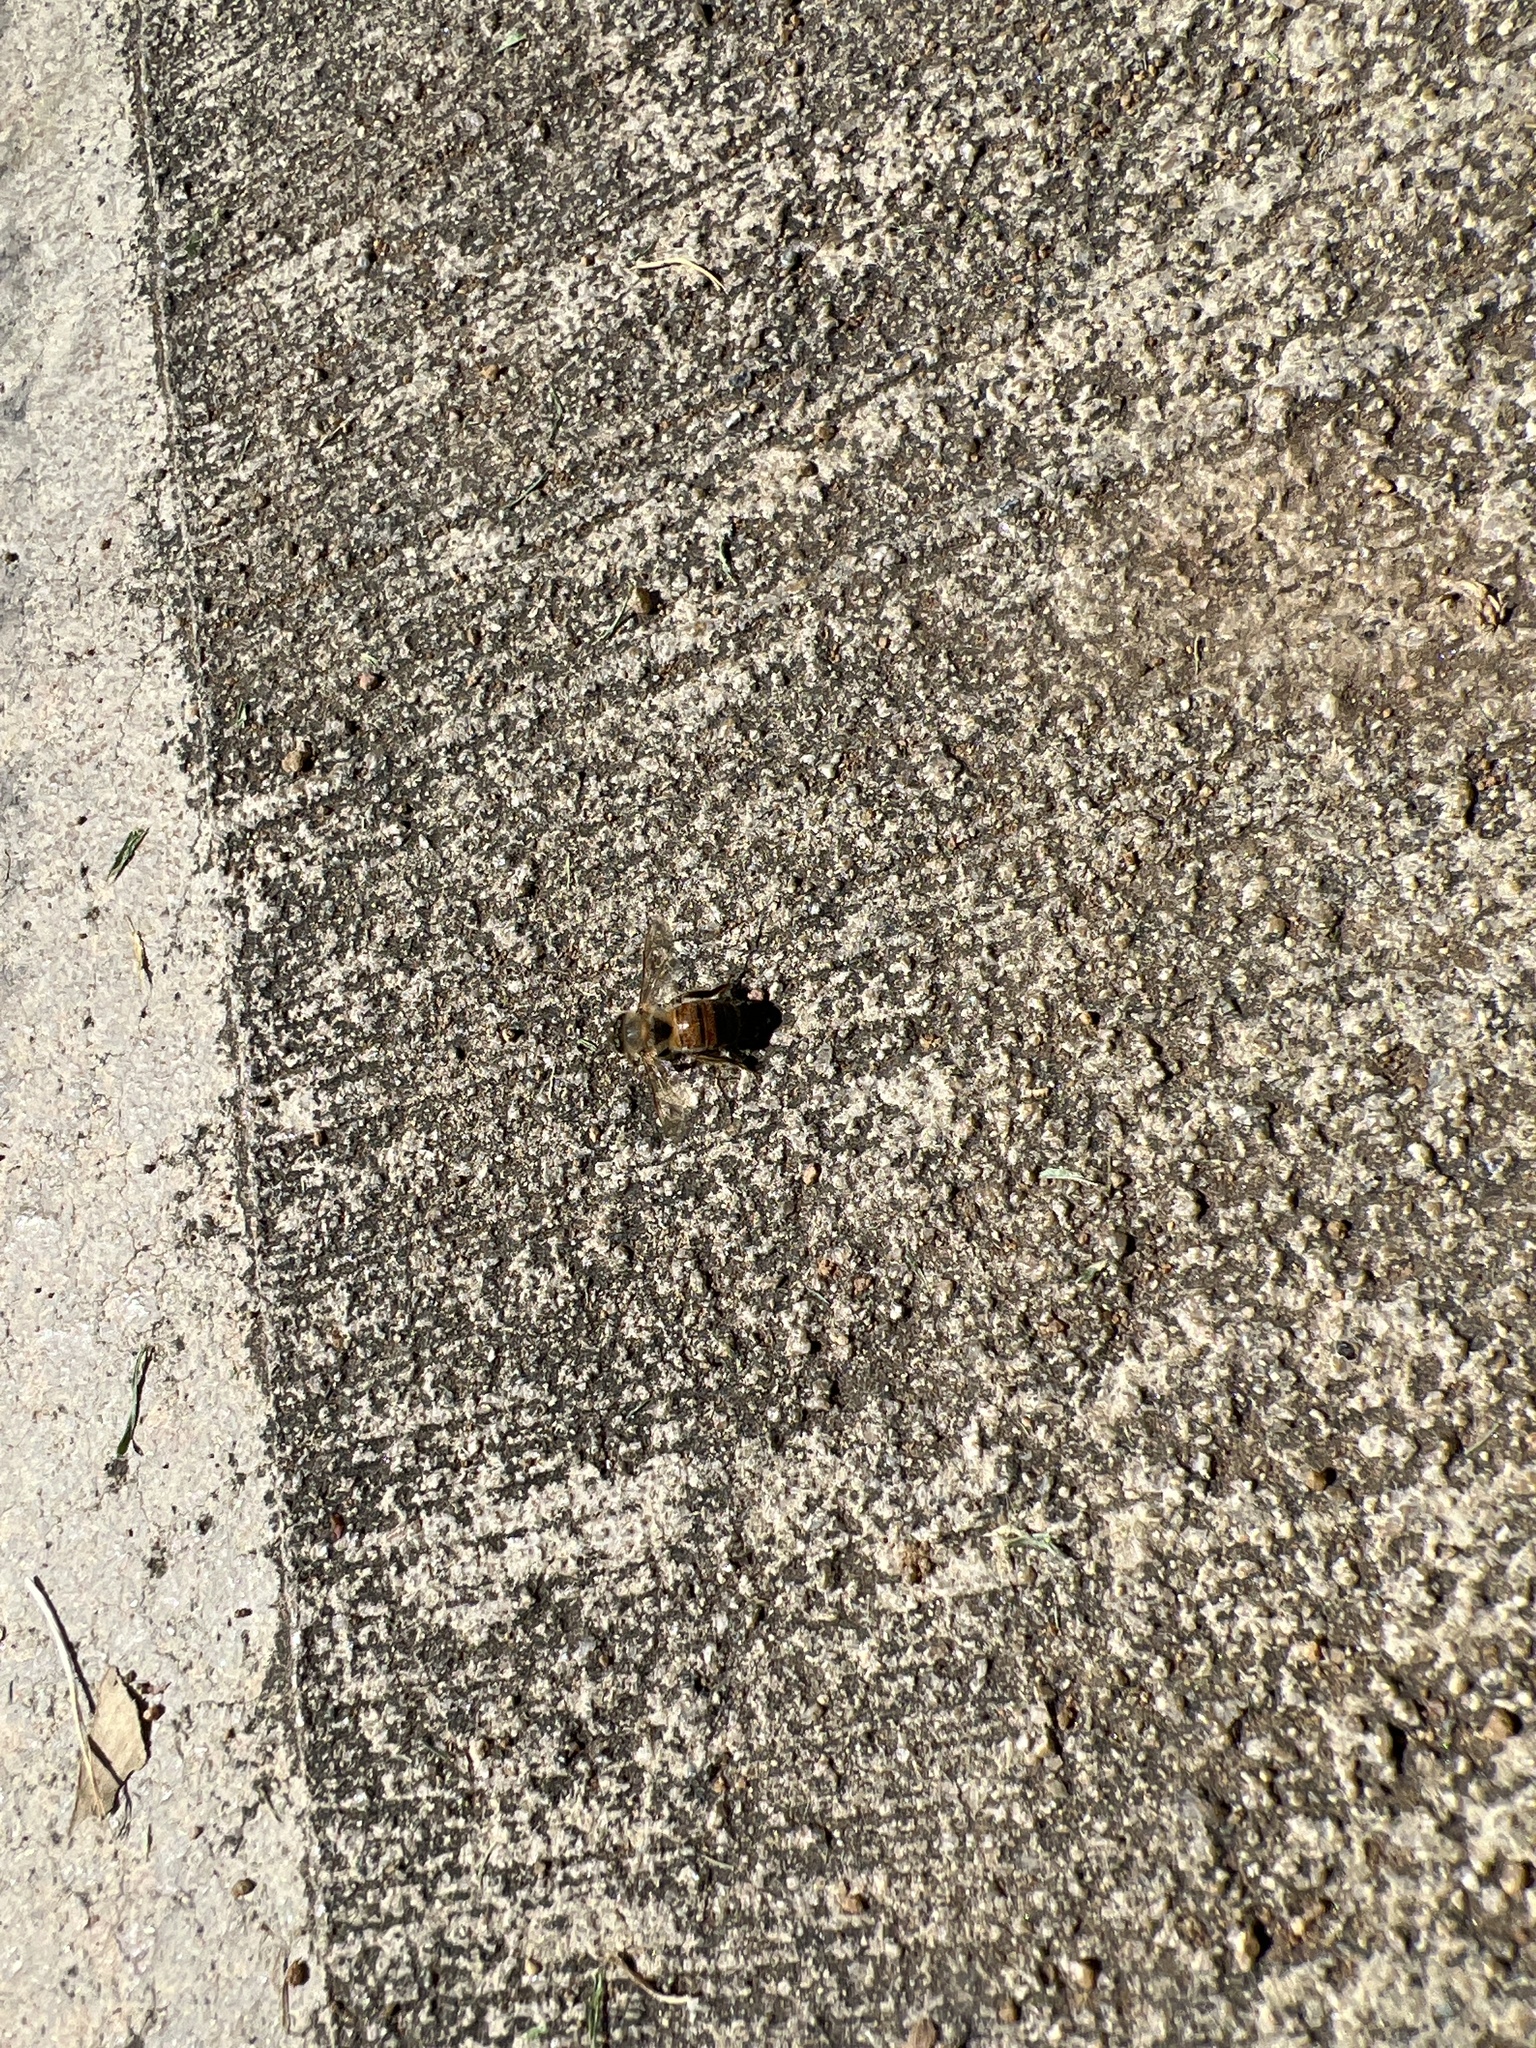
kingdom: Animalia
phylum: Arthropoda
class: Insecta
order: Hymenoptera
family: Apidae
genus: Apis
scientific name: Apis mellifera
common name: Honey bee
